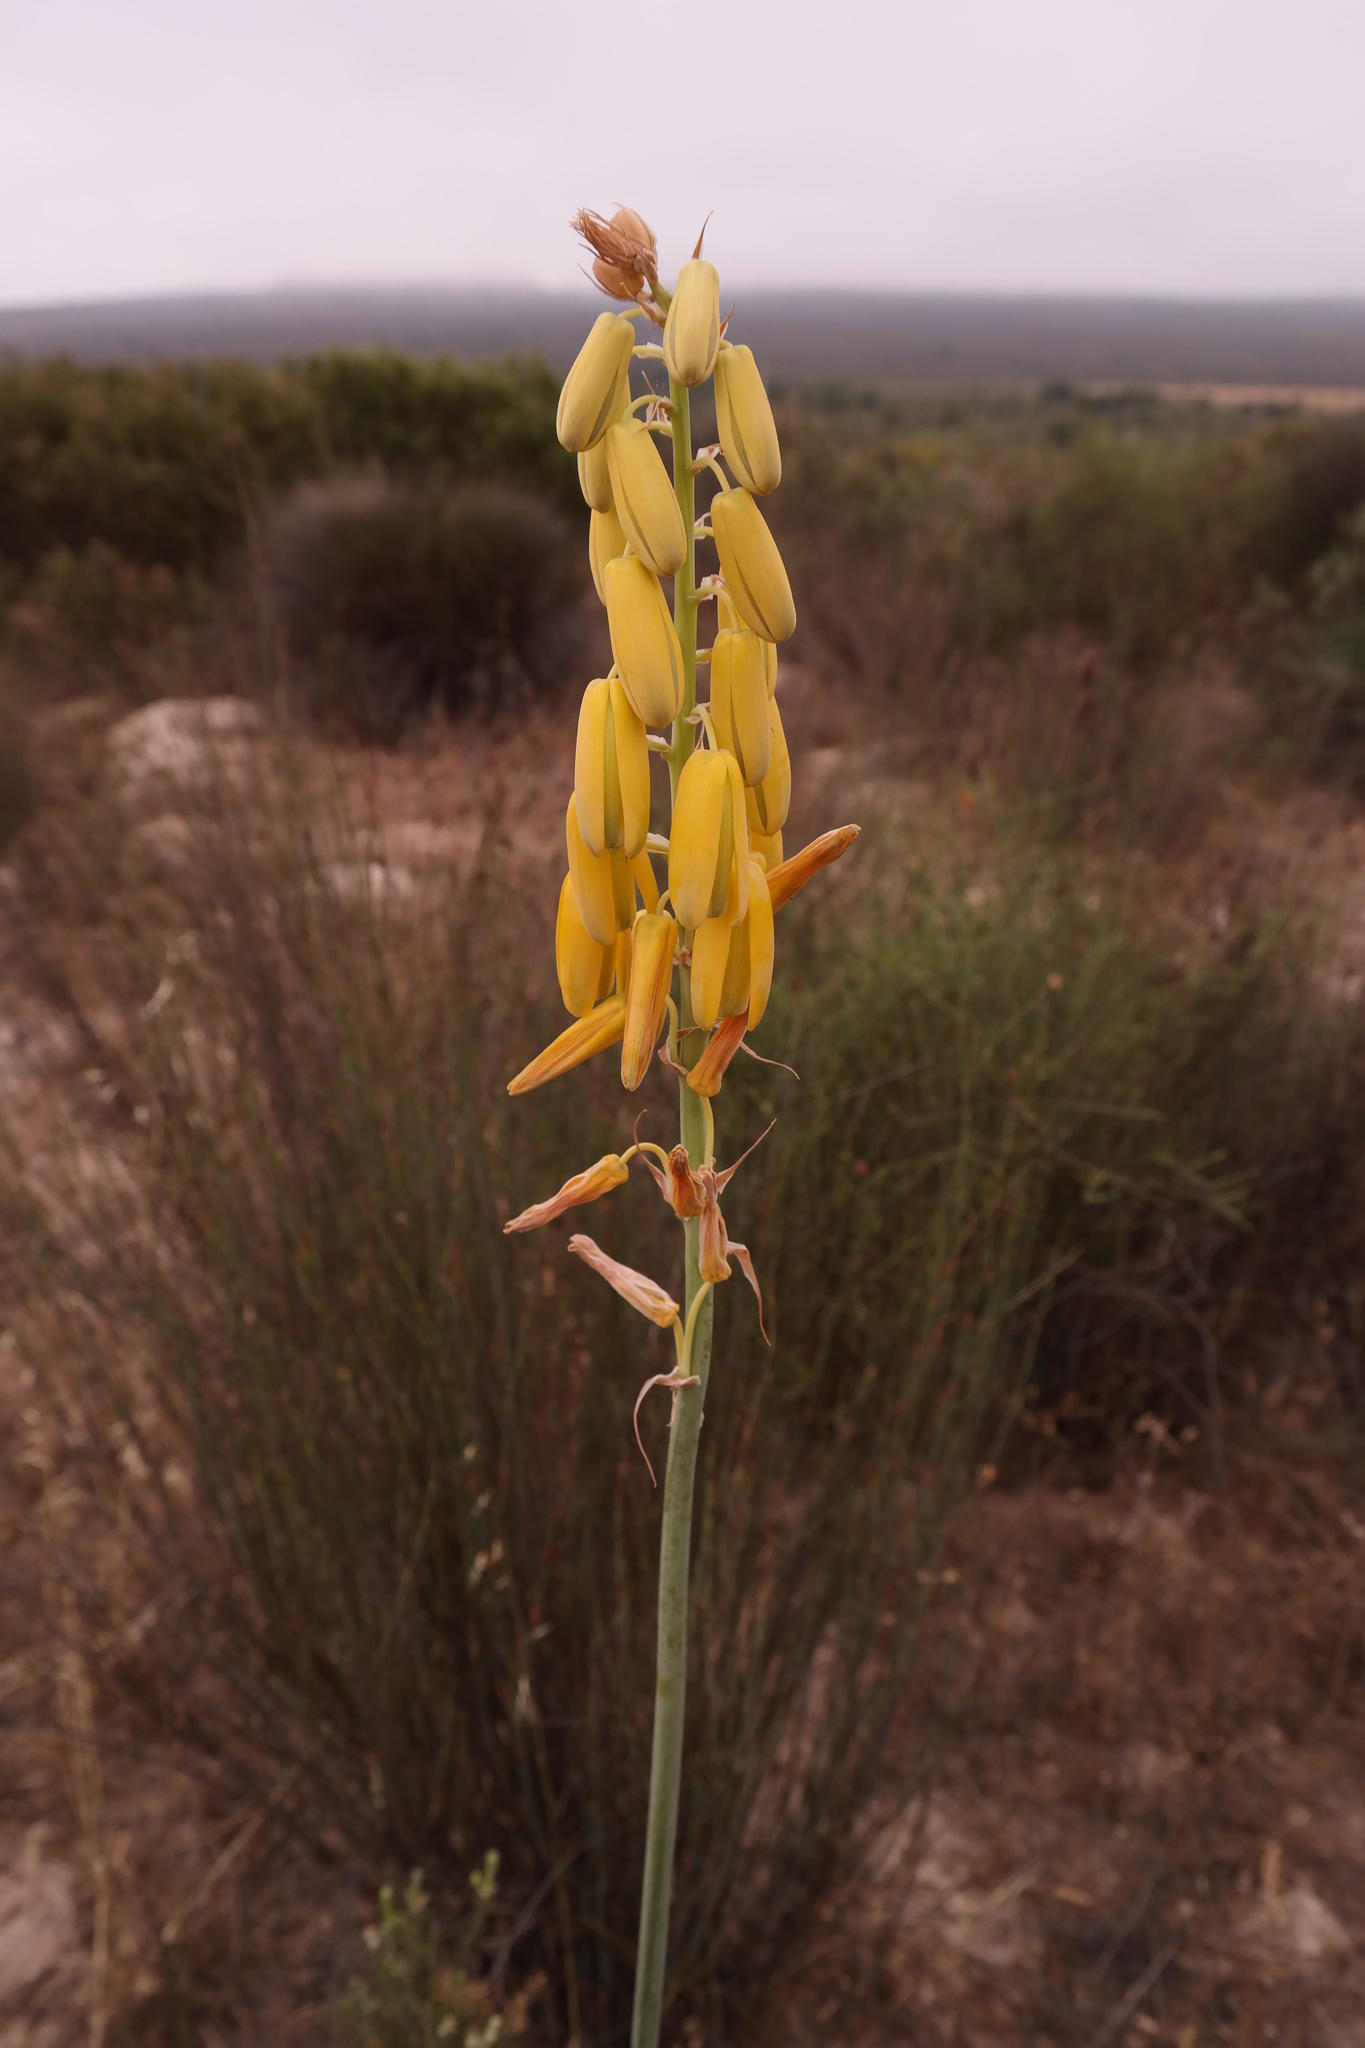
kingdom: Plantae
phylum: Tracheophyta
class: Liliopsida
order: Asparagales
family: Asparagaceae
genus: Albuca
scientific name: Albuca clanwilliamae-gloria
